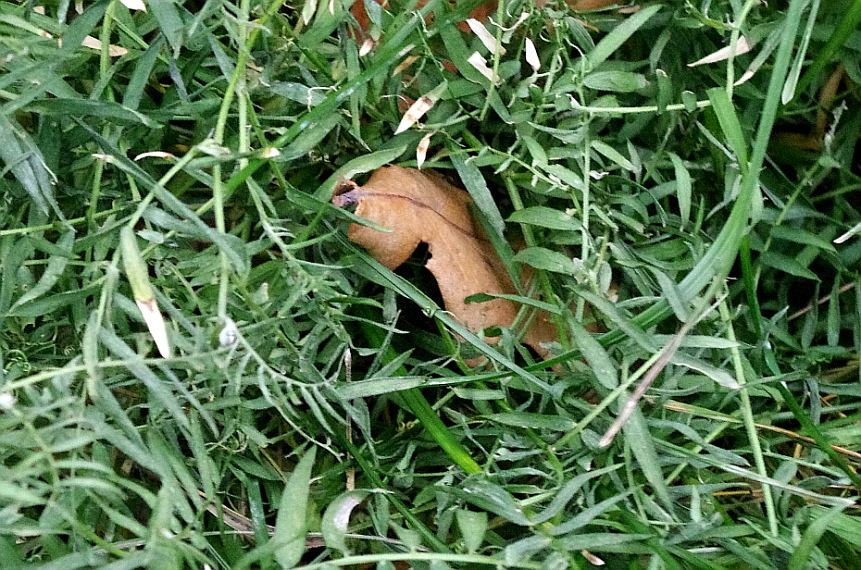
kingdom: Plantae
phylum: Tracheophyta
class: Magnoliopsida
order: Fabales
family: Fabaceae
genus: Vicia
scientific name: Vicia cracca
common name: Bird vetch
